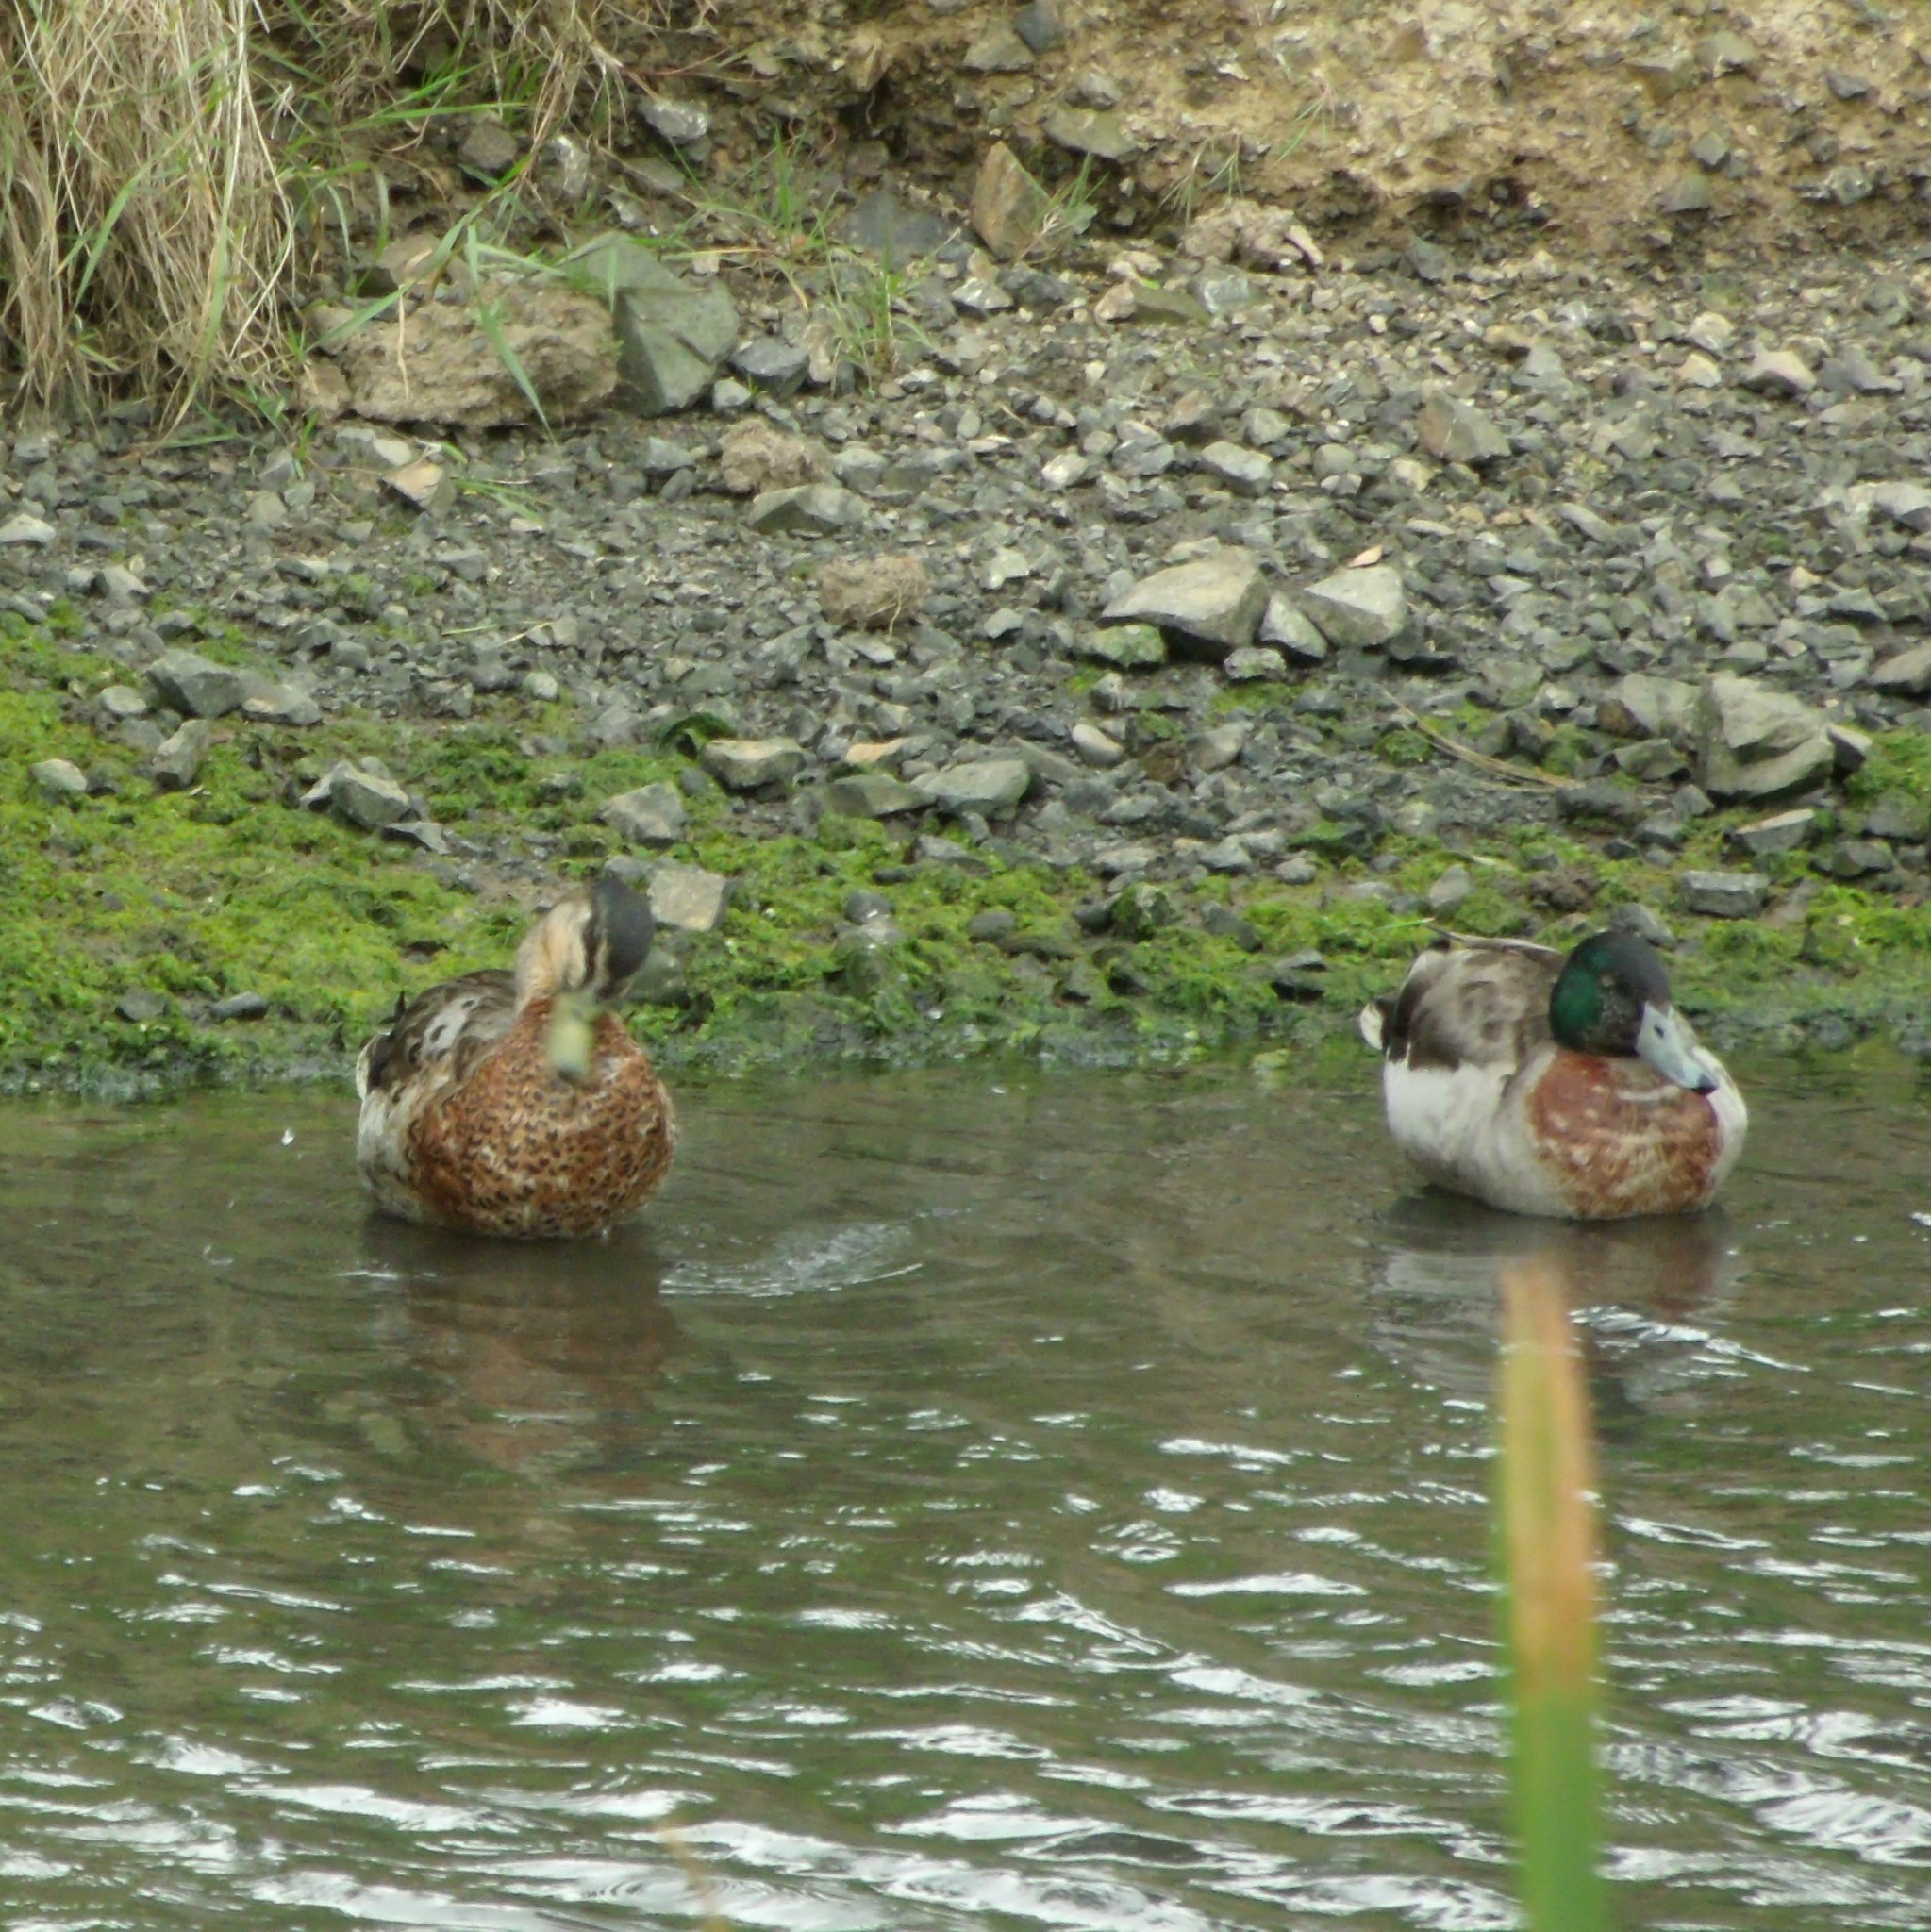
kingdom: Animalia
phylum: Chordata
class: Aves
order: Anseriformes
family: Anatidae
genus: Anas
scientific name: Anas
